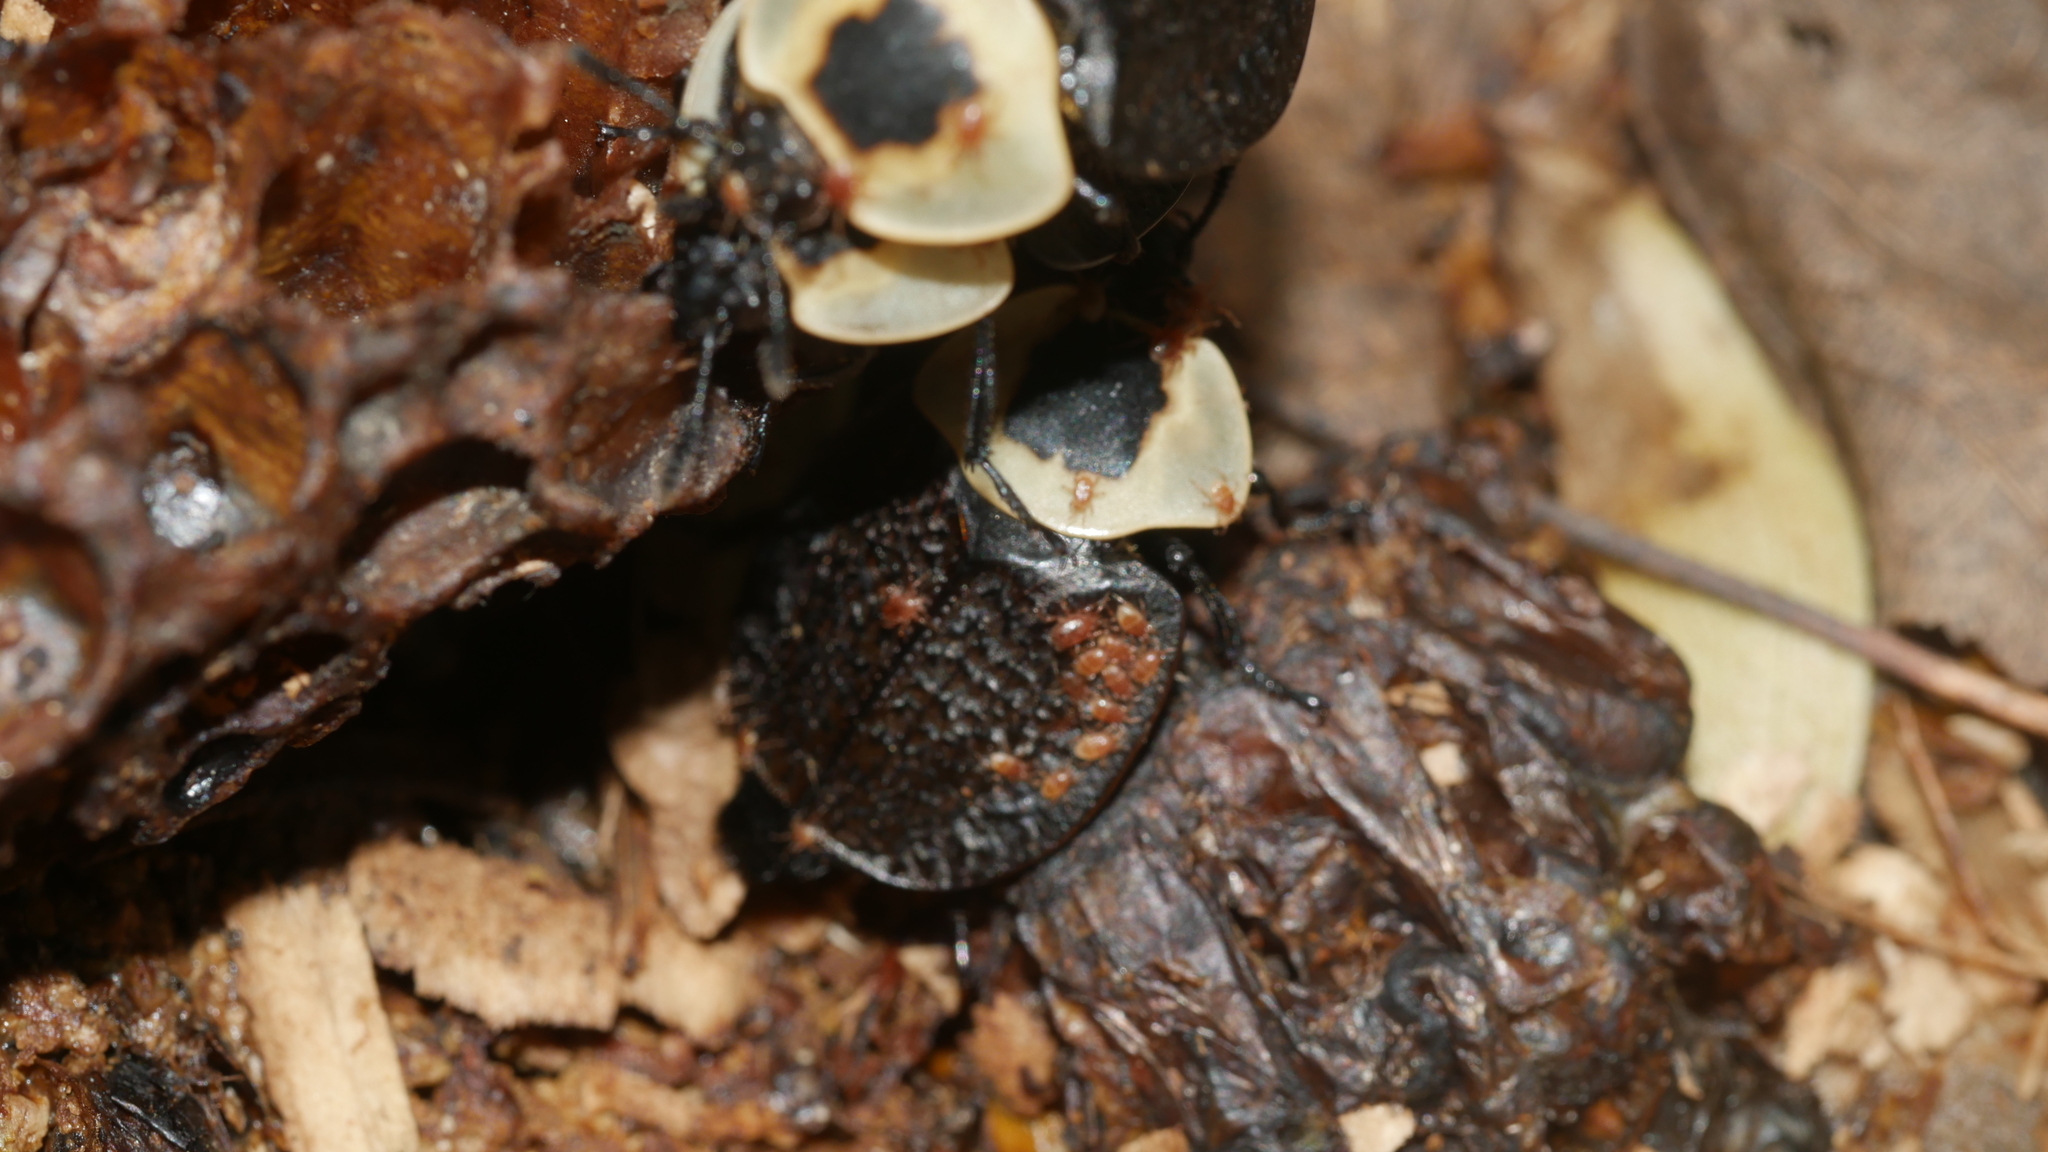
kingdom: Animalia
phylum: Arthropoda
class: Insecta
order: Coleoptera
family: Staphylinidae
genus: Necrophila
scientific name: Necrophila americana
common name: American carrion beetle
